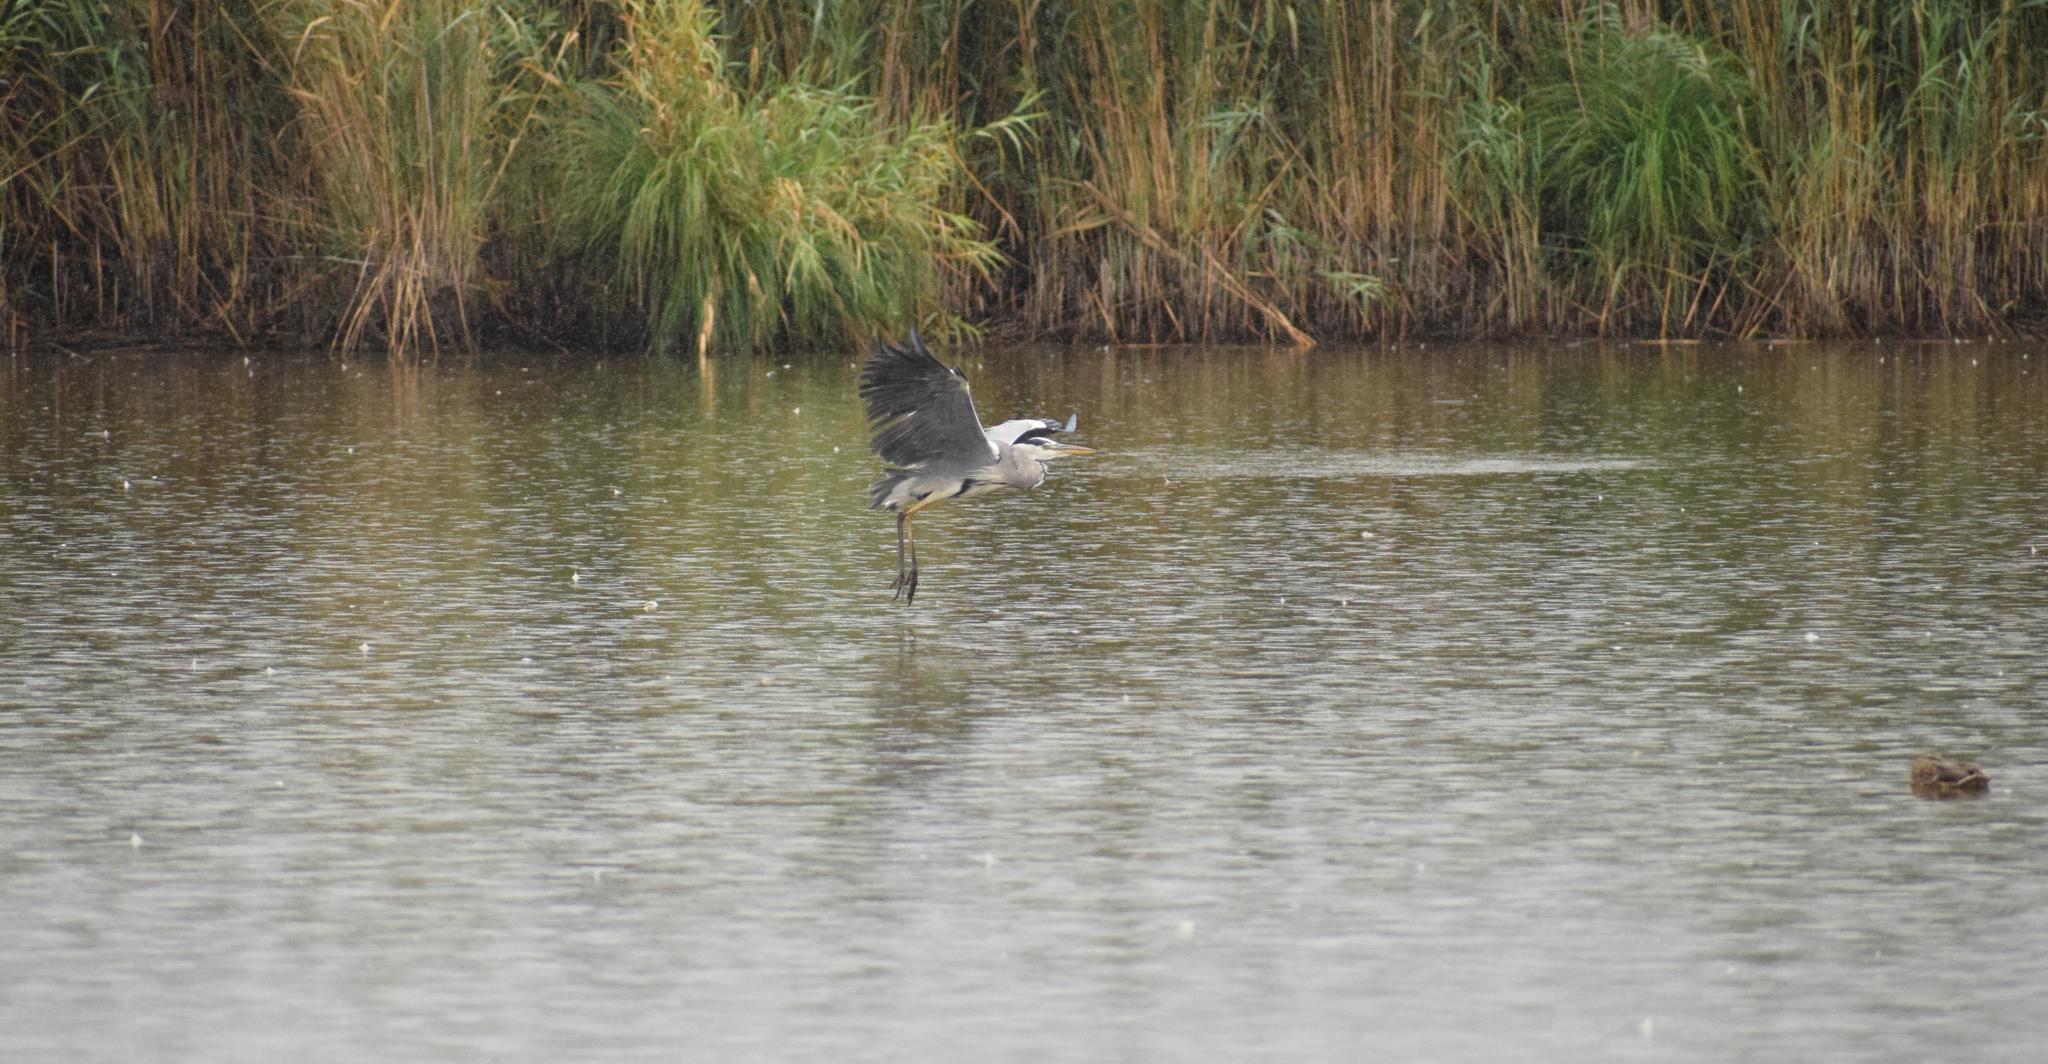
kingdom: Animalia
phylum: Chordata
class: Aves
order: Pelecaniformes
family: Ardeidae
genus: Ardea
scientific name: Ardea cinerea
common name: Grey heron
